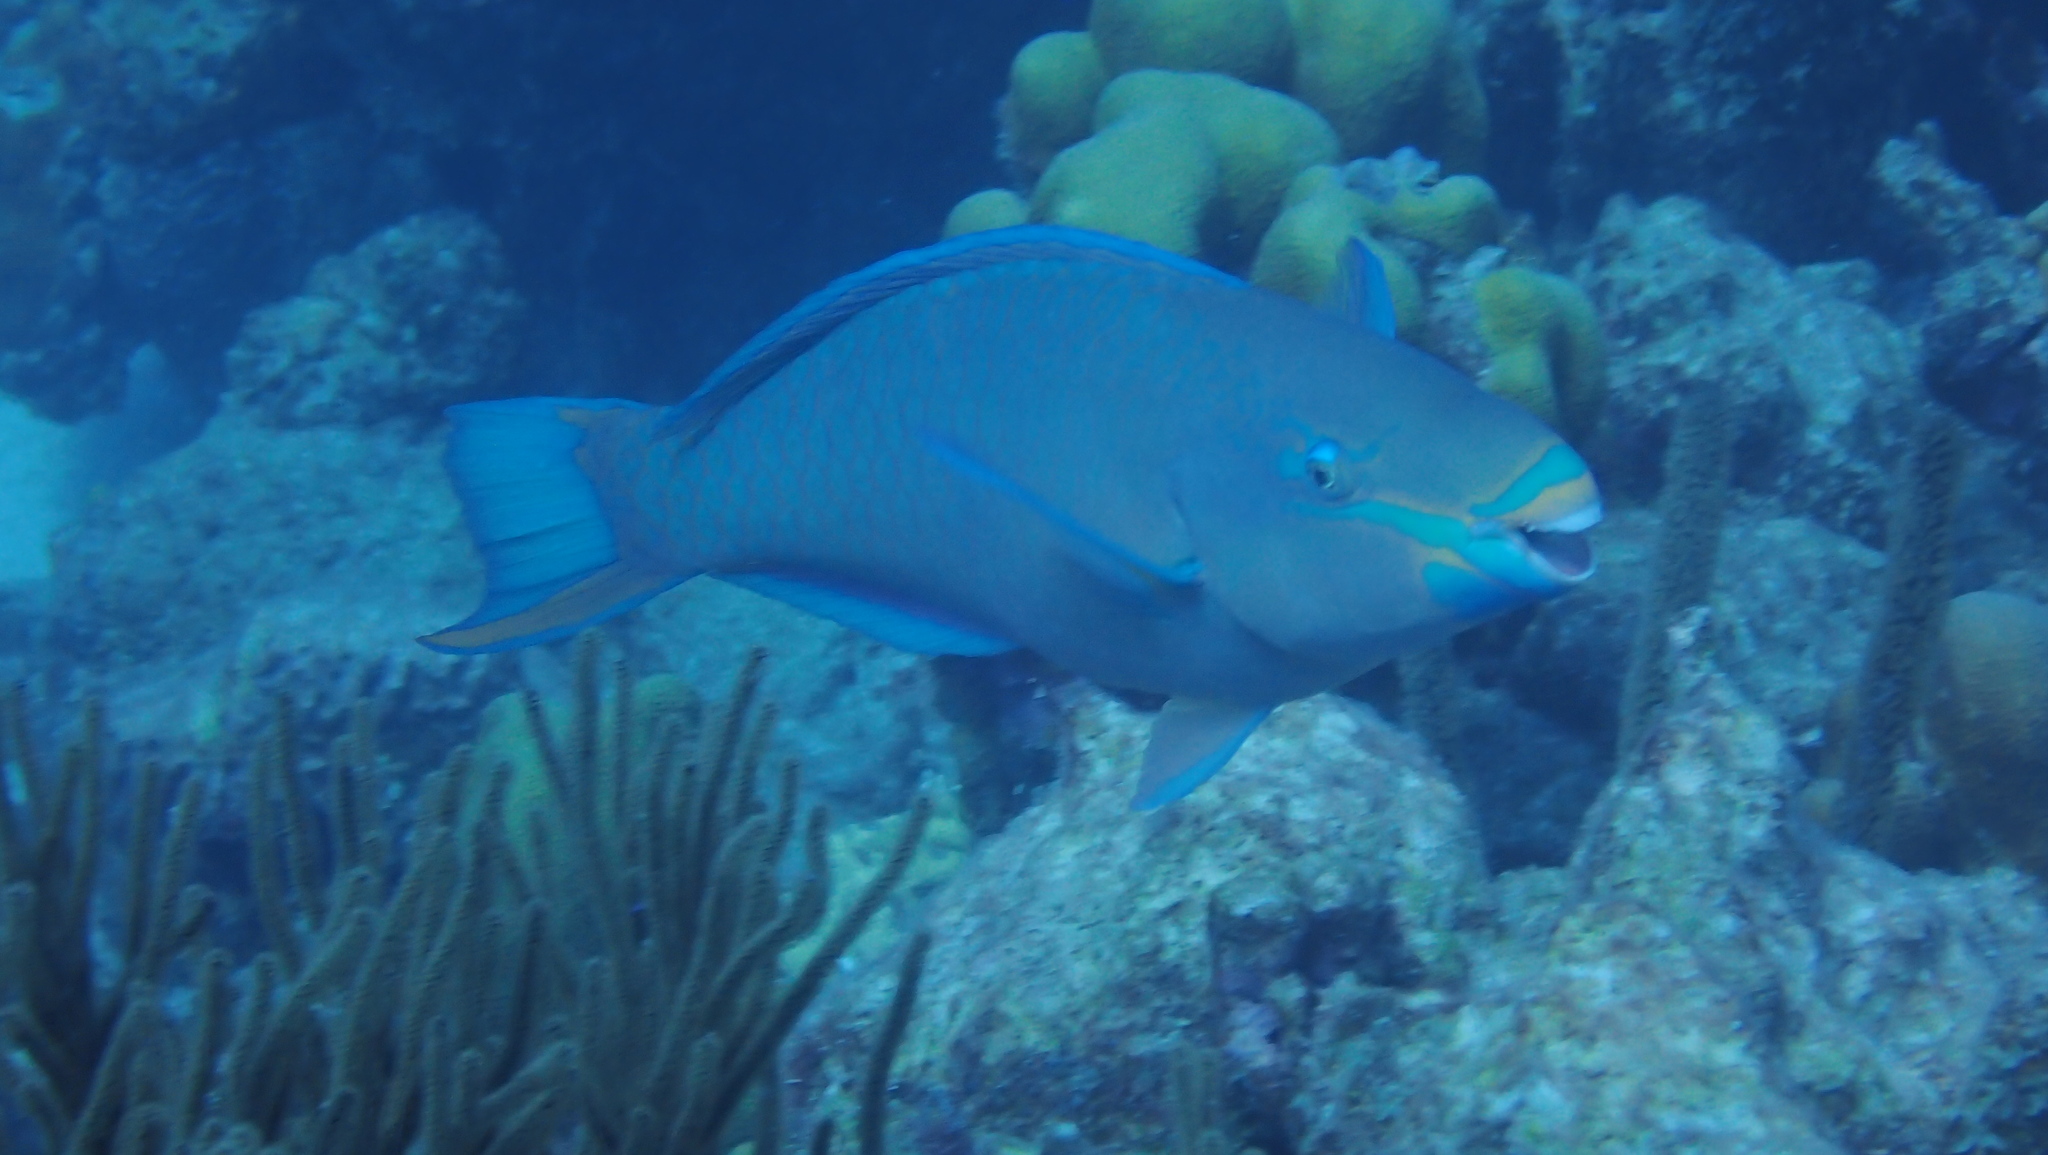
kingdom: Animalia
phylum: Chordata
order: Perciformes
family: Scaridae
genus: Scarus
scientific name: Scarus vetula
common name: Queen parrotfish
